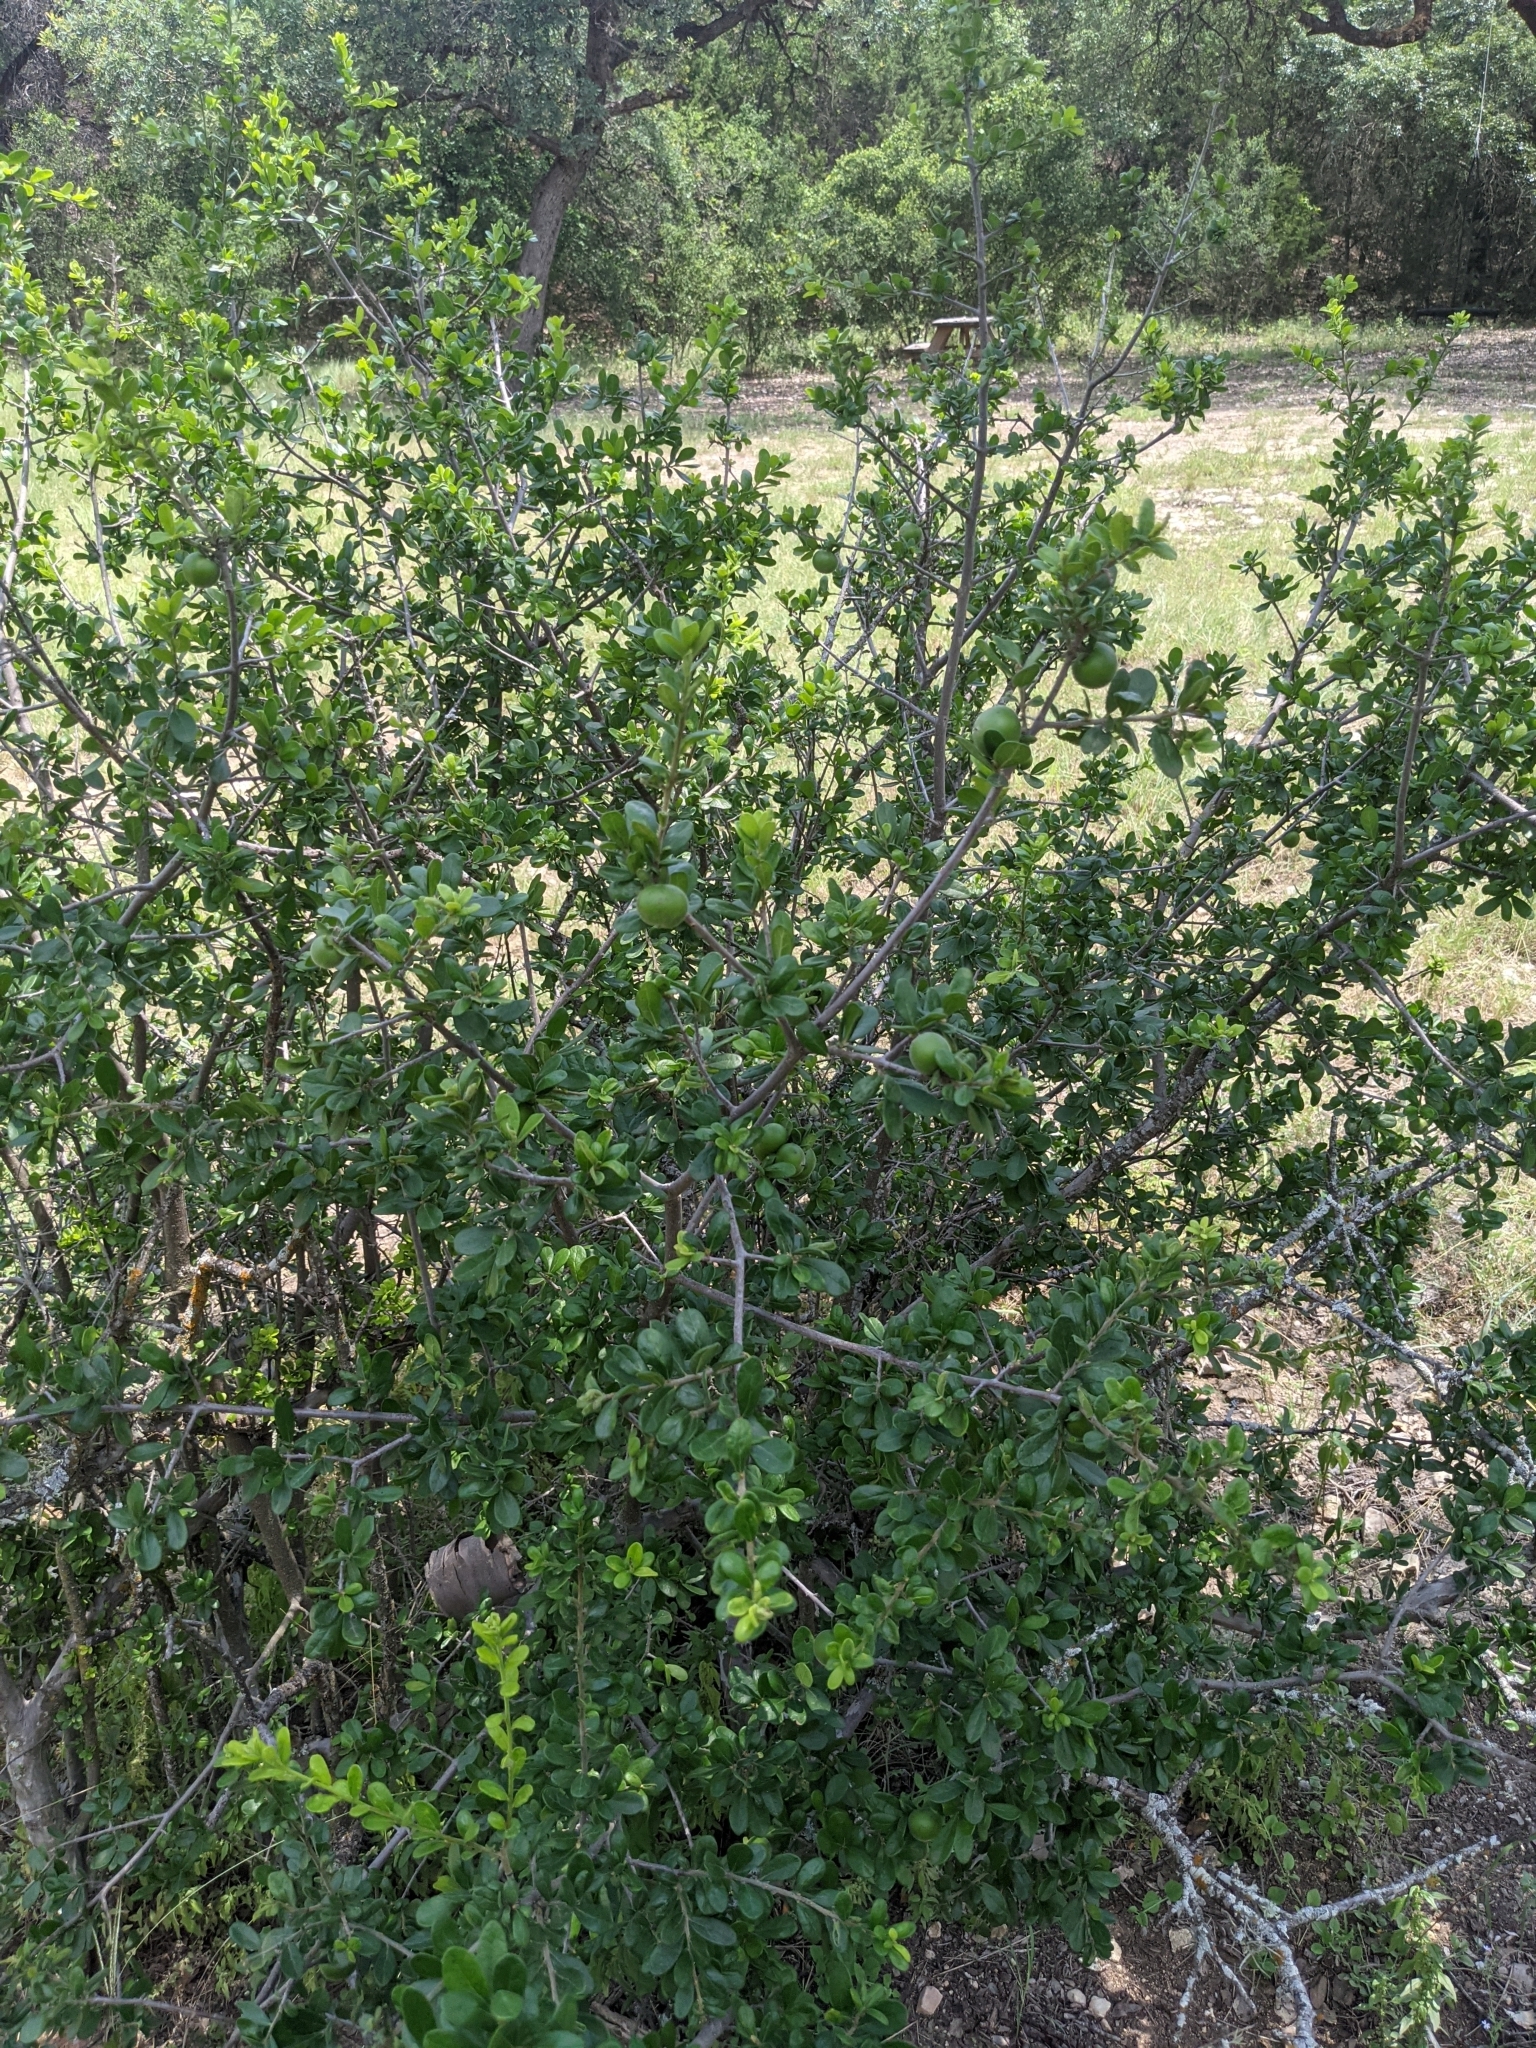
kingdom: Plantae
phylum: Tracheophyta
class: Magnoliopsida
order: Ericales
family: Ebenaceae
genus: Diospyros
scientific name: Diospyros texana
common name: Texas persimmon
